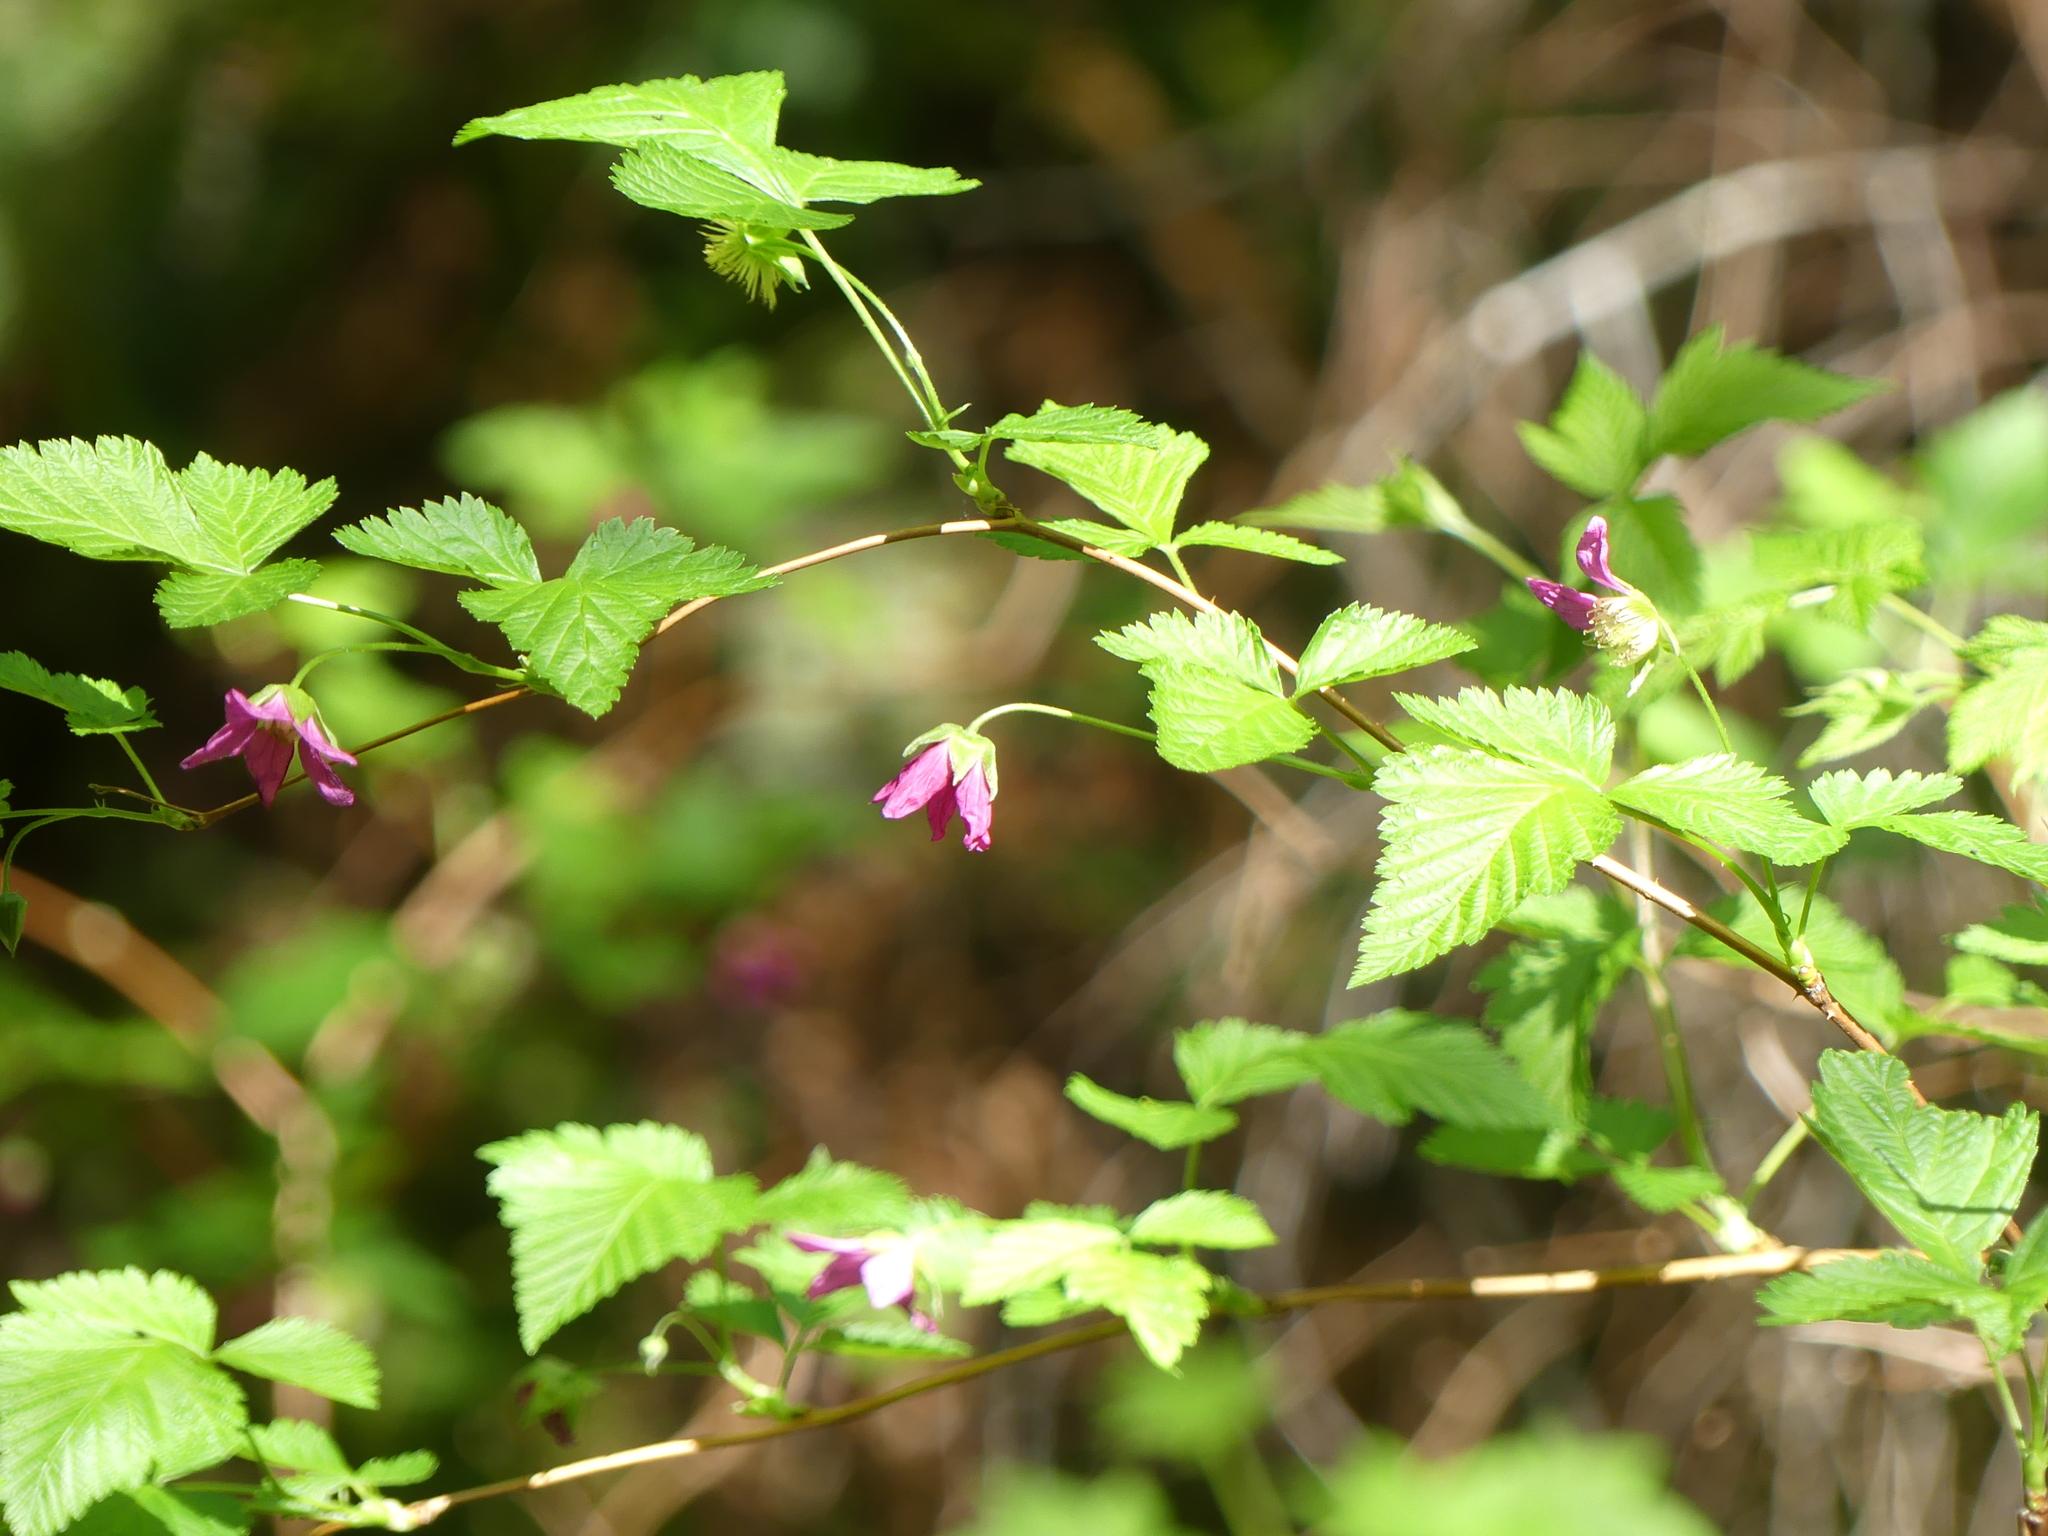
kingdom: Plantae
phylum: Tracheophyta
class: Magnoliopsida
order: Rosales
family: Rosaceae
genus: Rubus
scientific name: Rubus spectabilis
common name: Salmonberry
